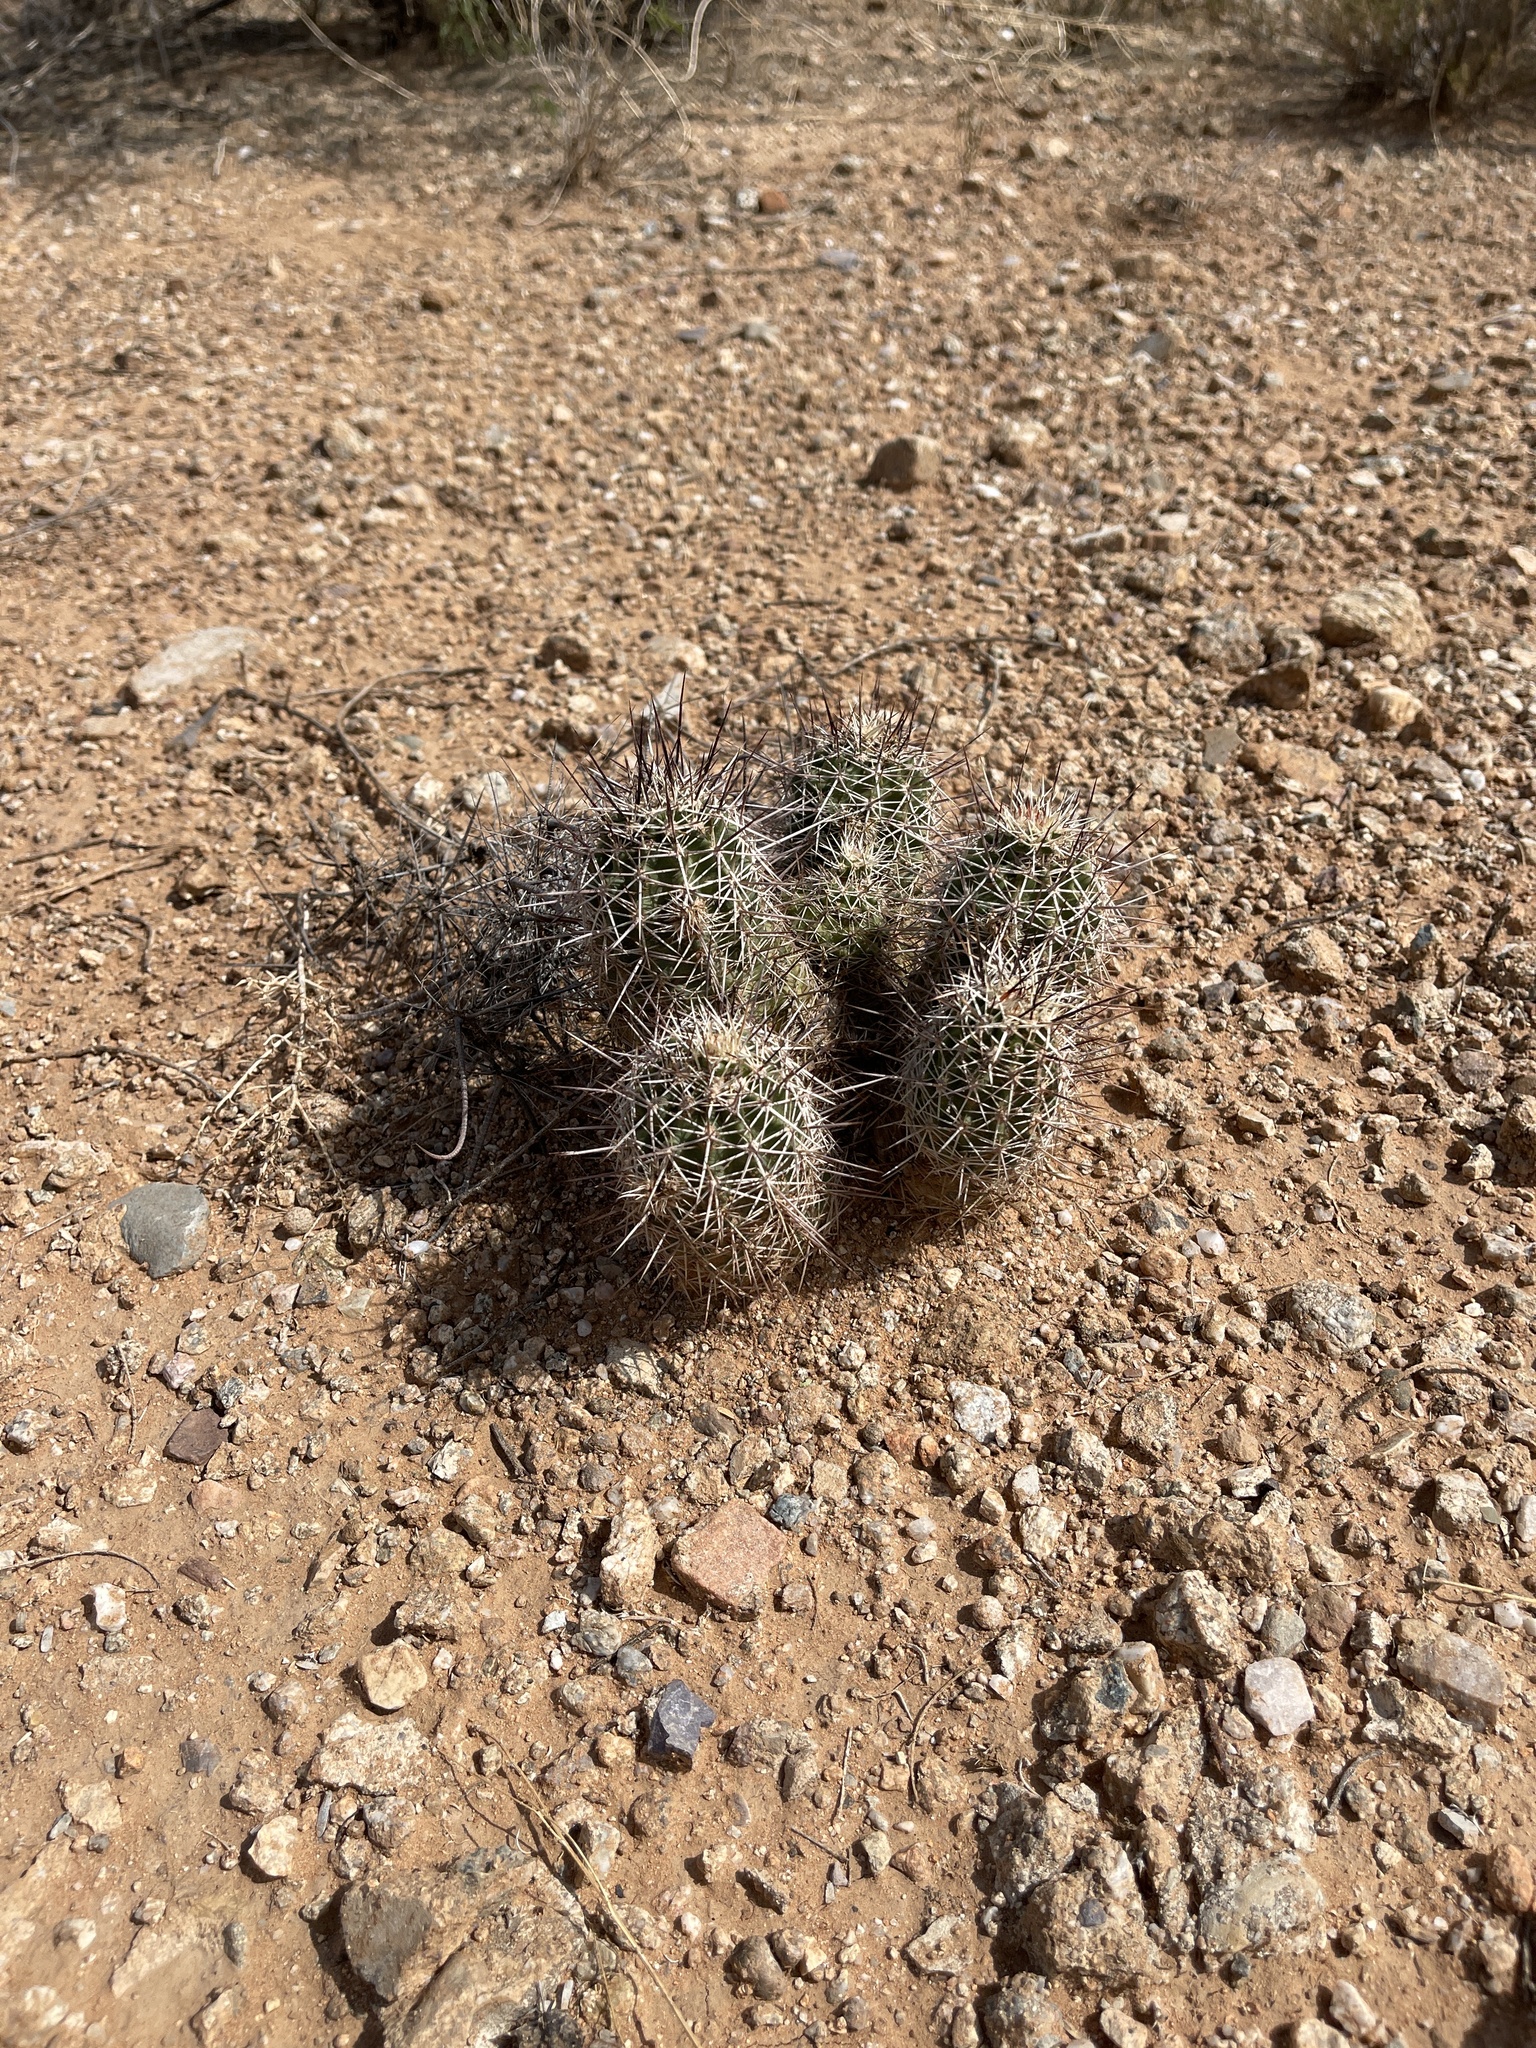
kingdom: Plantae
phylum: Tracheophyta
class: Magnoliopsida
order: Caryophyllales
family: Cactaceae
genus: Echinocereus
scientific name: Echinocereus fasciculatus
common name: Bundle hedgehog
